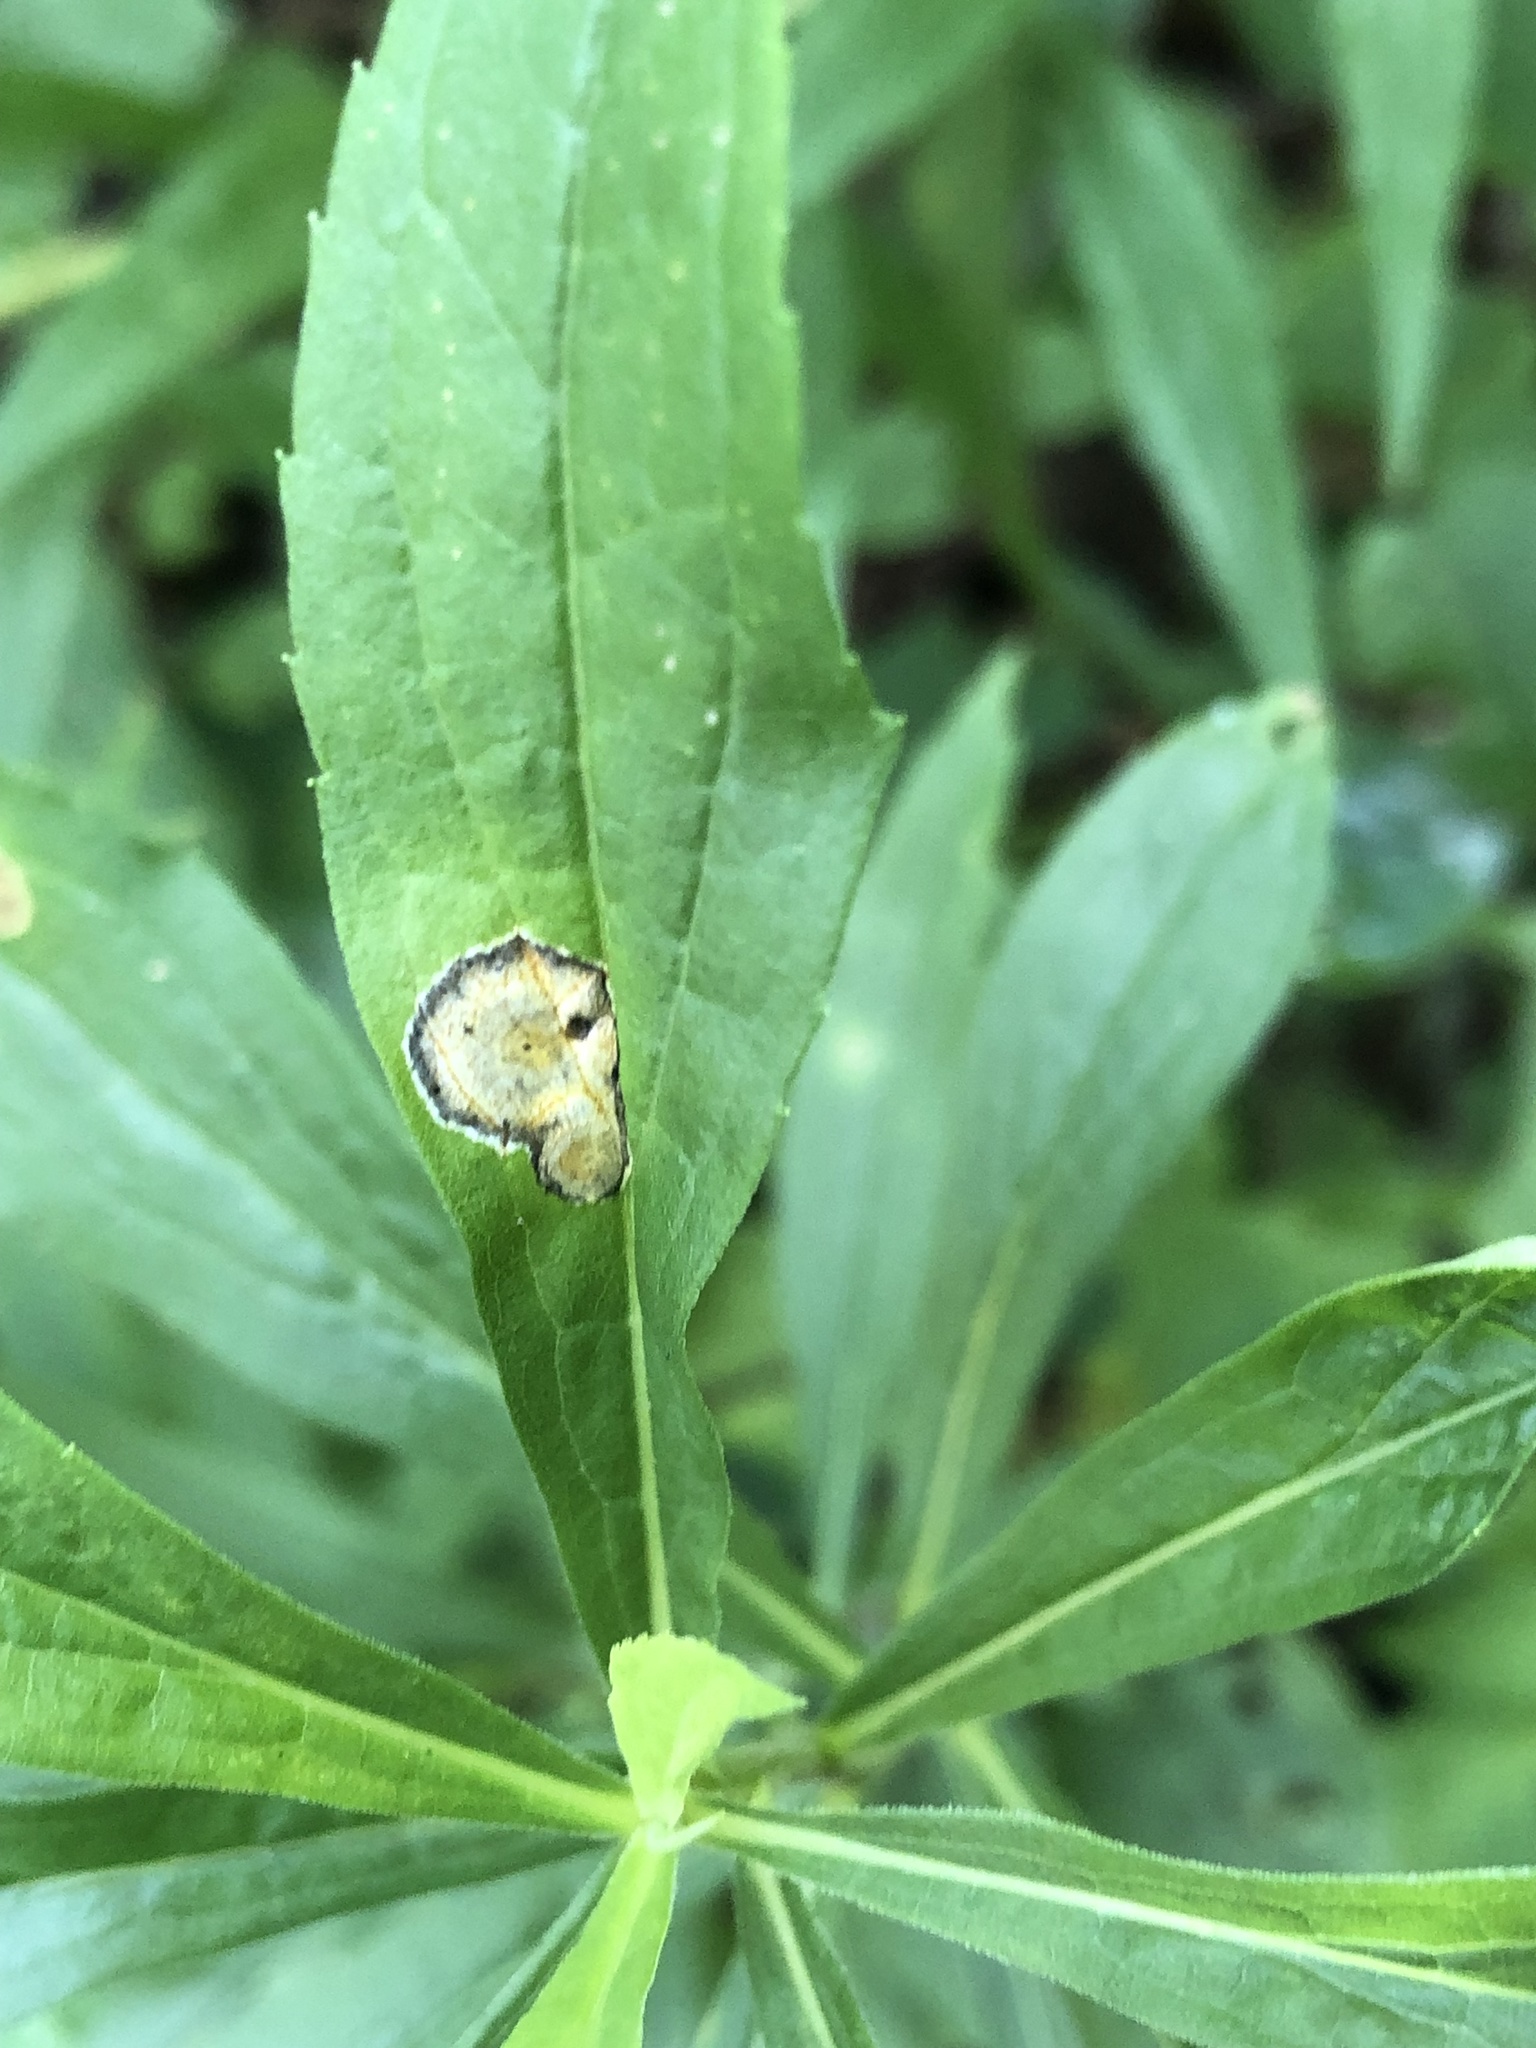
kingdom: Animalia
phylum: Arthropoda
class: Insecta
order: Diptera
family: Cecidomyiidae
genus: Asteromyia
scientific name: Asteromyia carbonifera
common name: Carbonifera goldenrod gall midge
